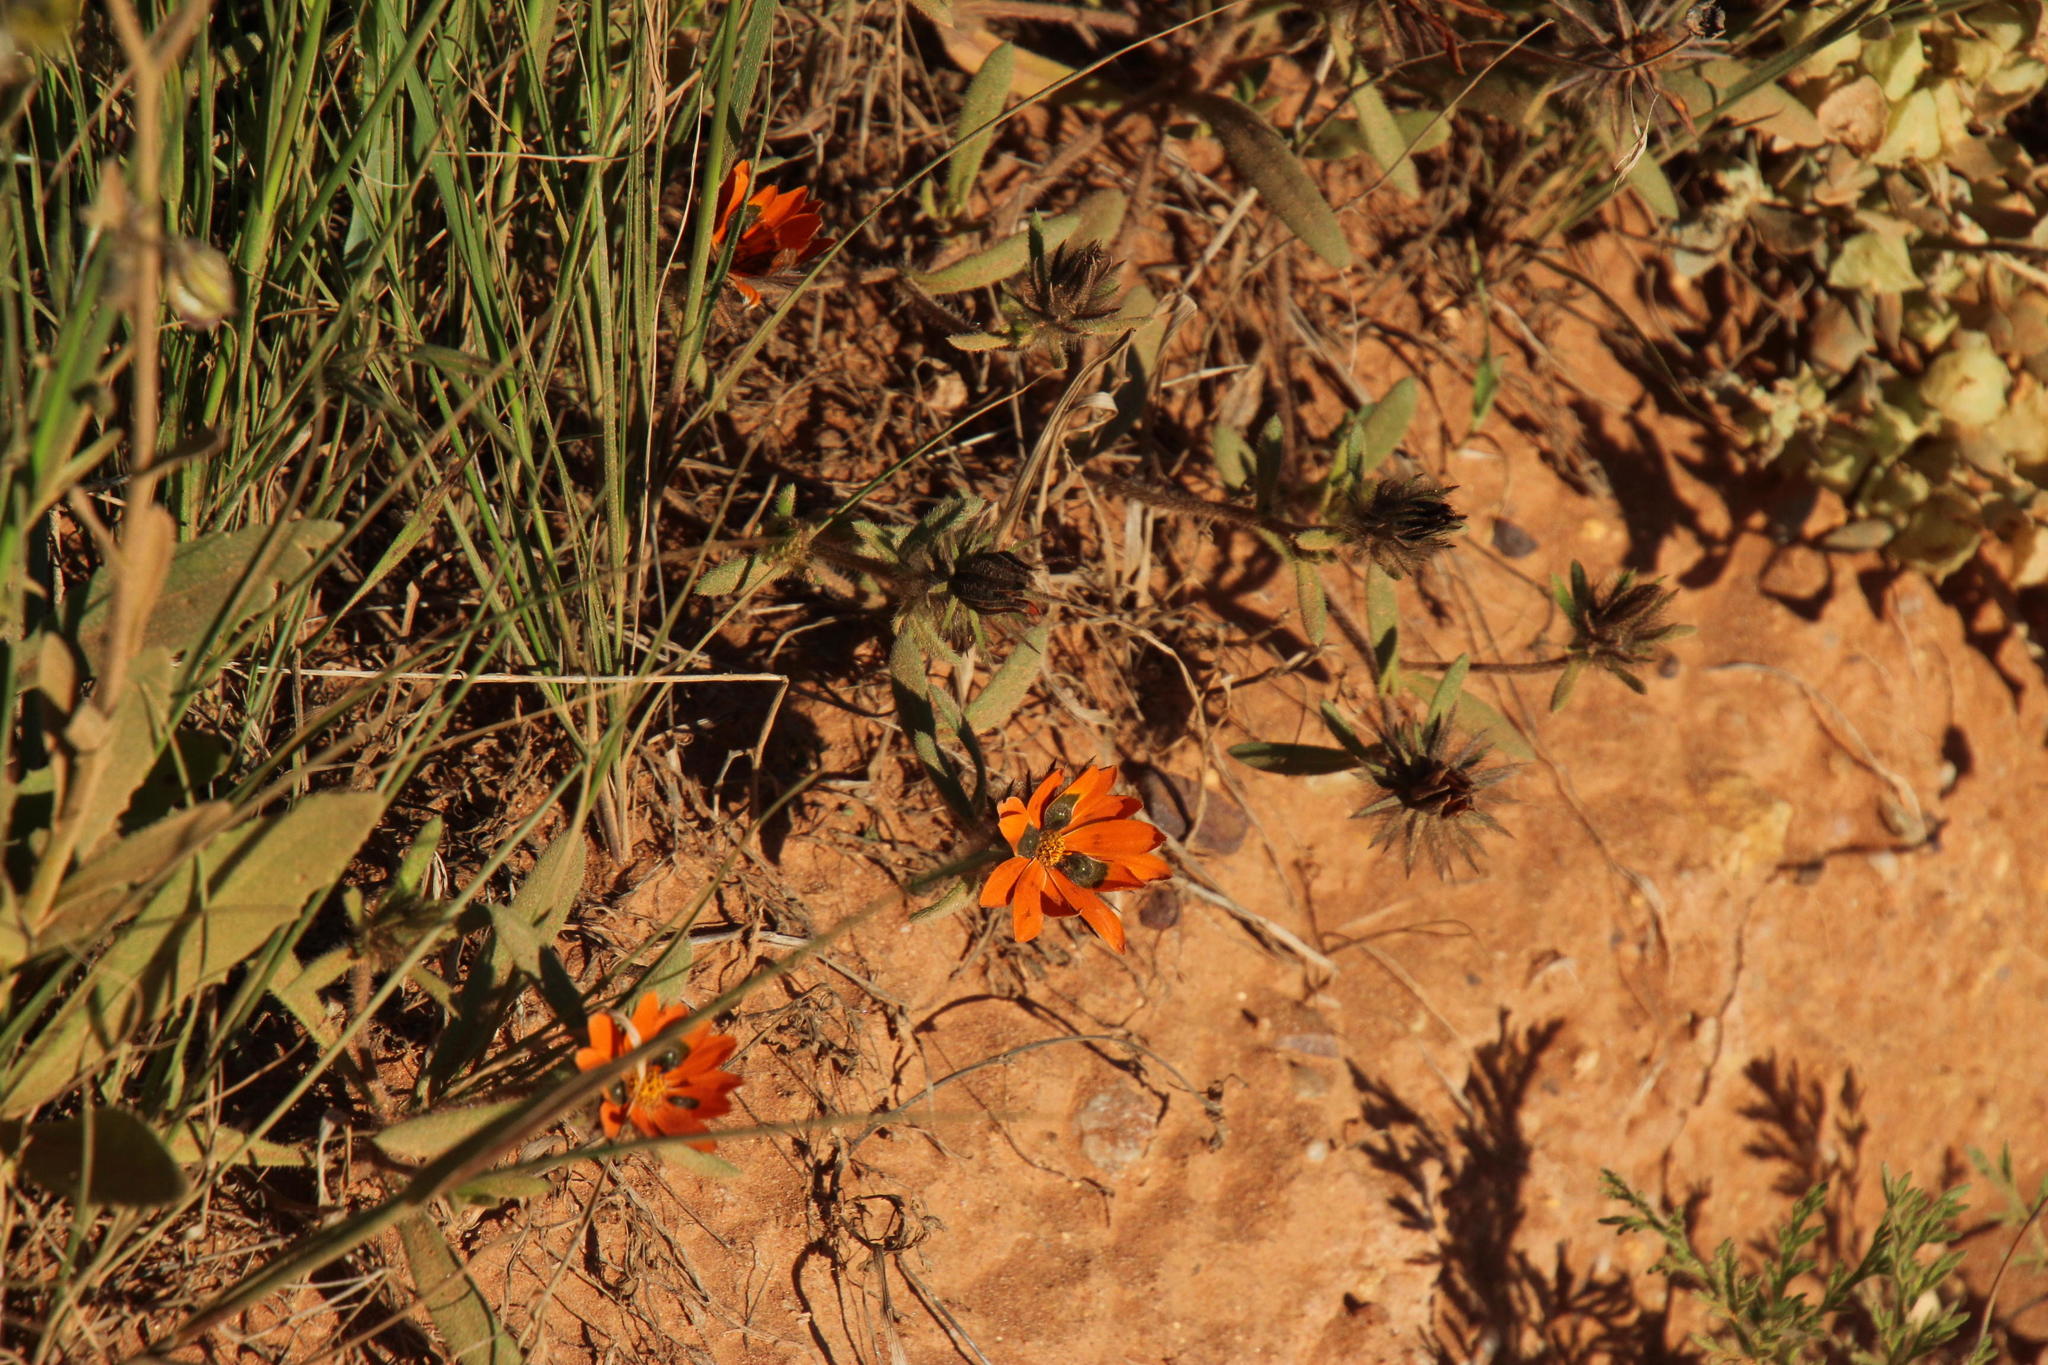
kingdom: Plantae
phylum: Tracheophyta
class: Magnoliopsida
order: Asterales
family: Asteraceae
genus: Gorteria
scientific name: Gorteria diffusa
